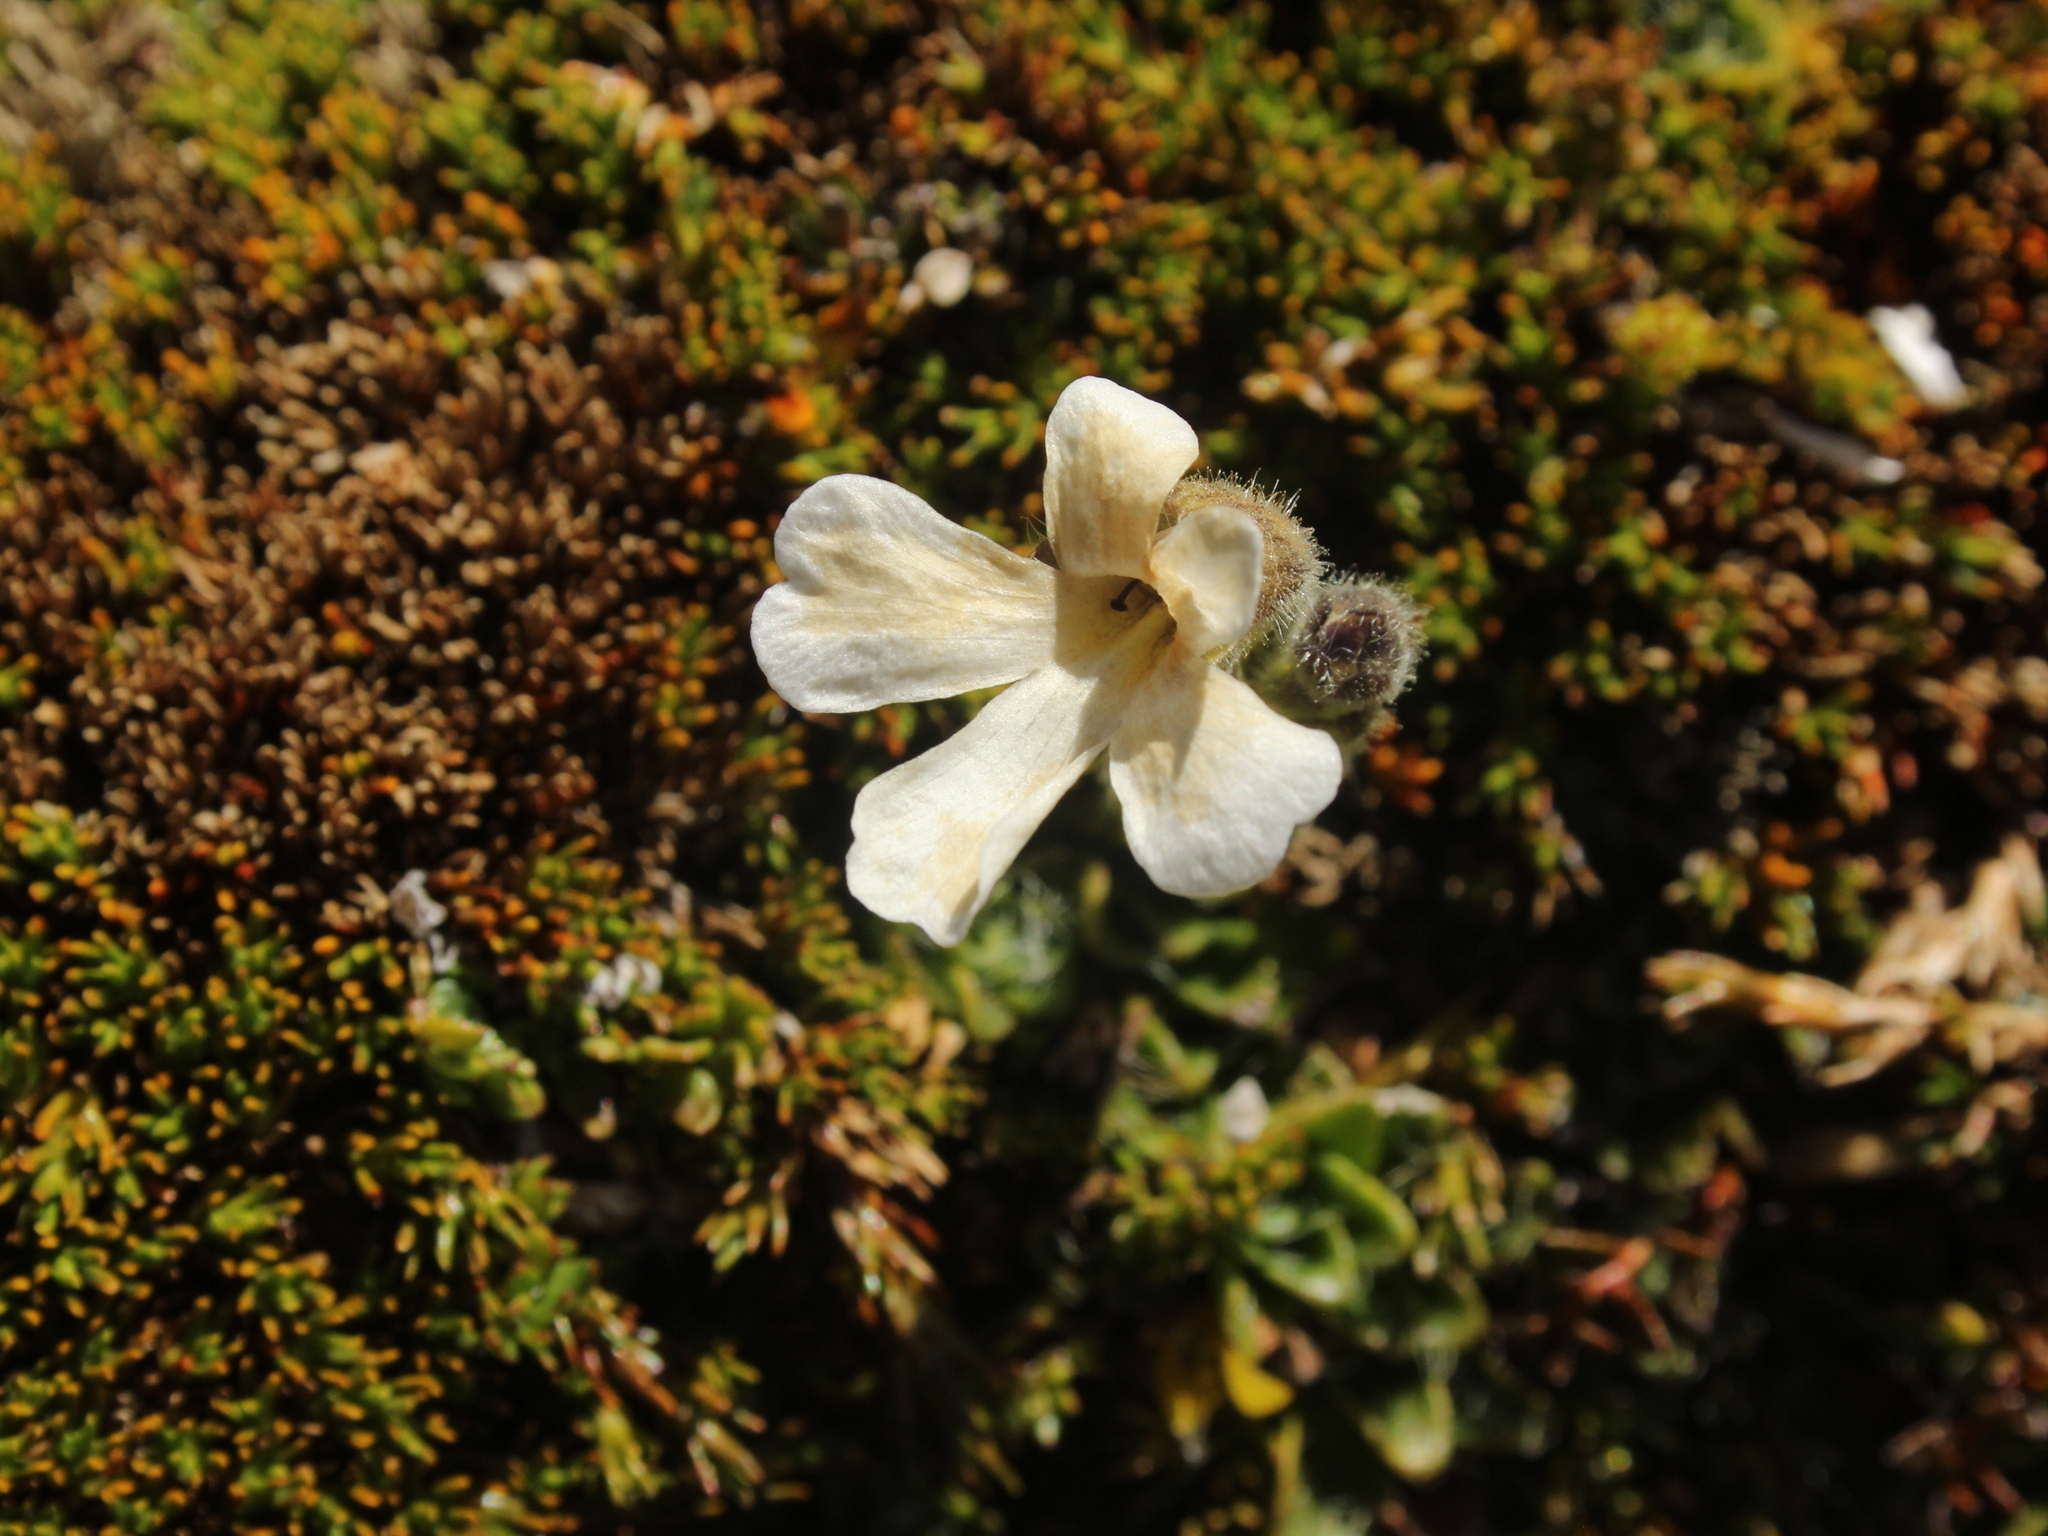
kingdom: Plantae
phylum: Tracheophyta
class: Magnoliopsida
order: Lamiales
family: Plantaginaceae
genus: Ourisia
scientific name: Ourisia glandulosa
